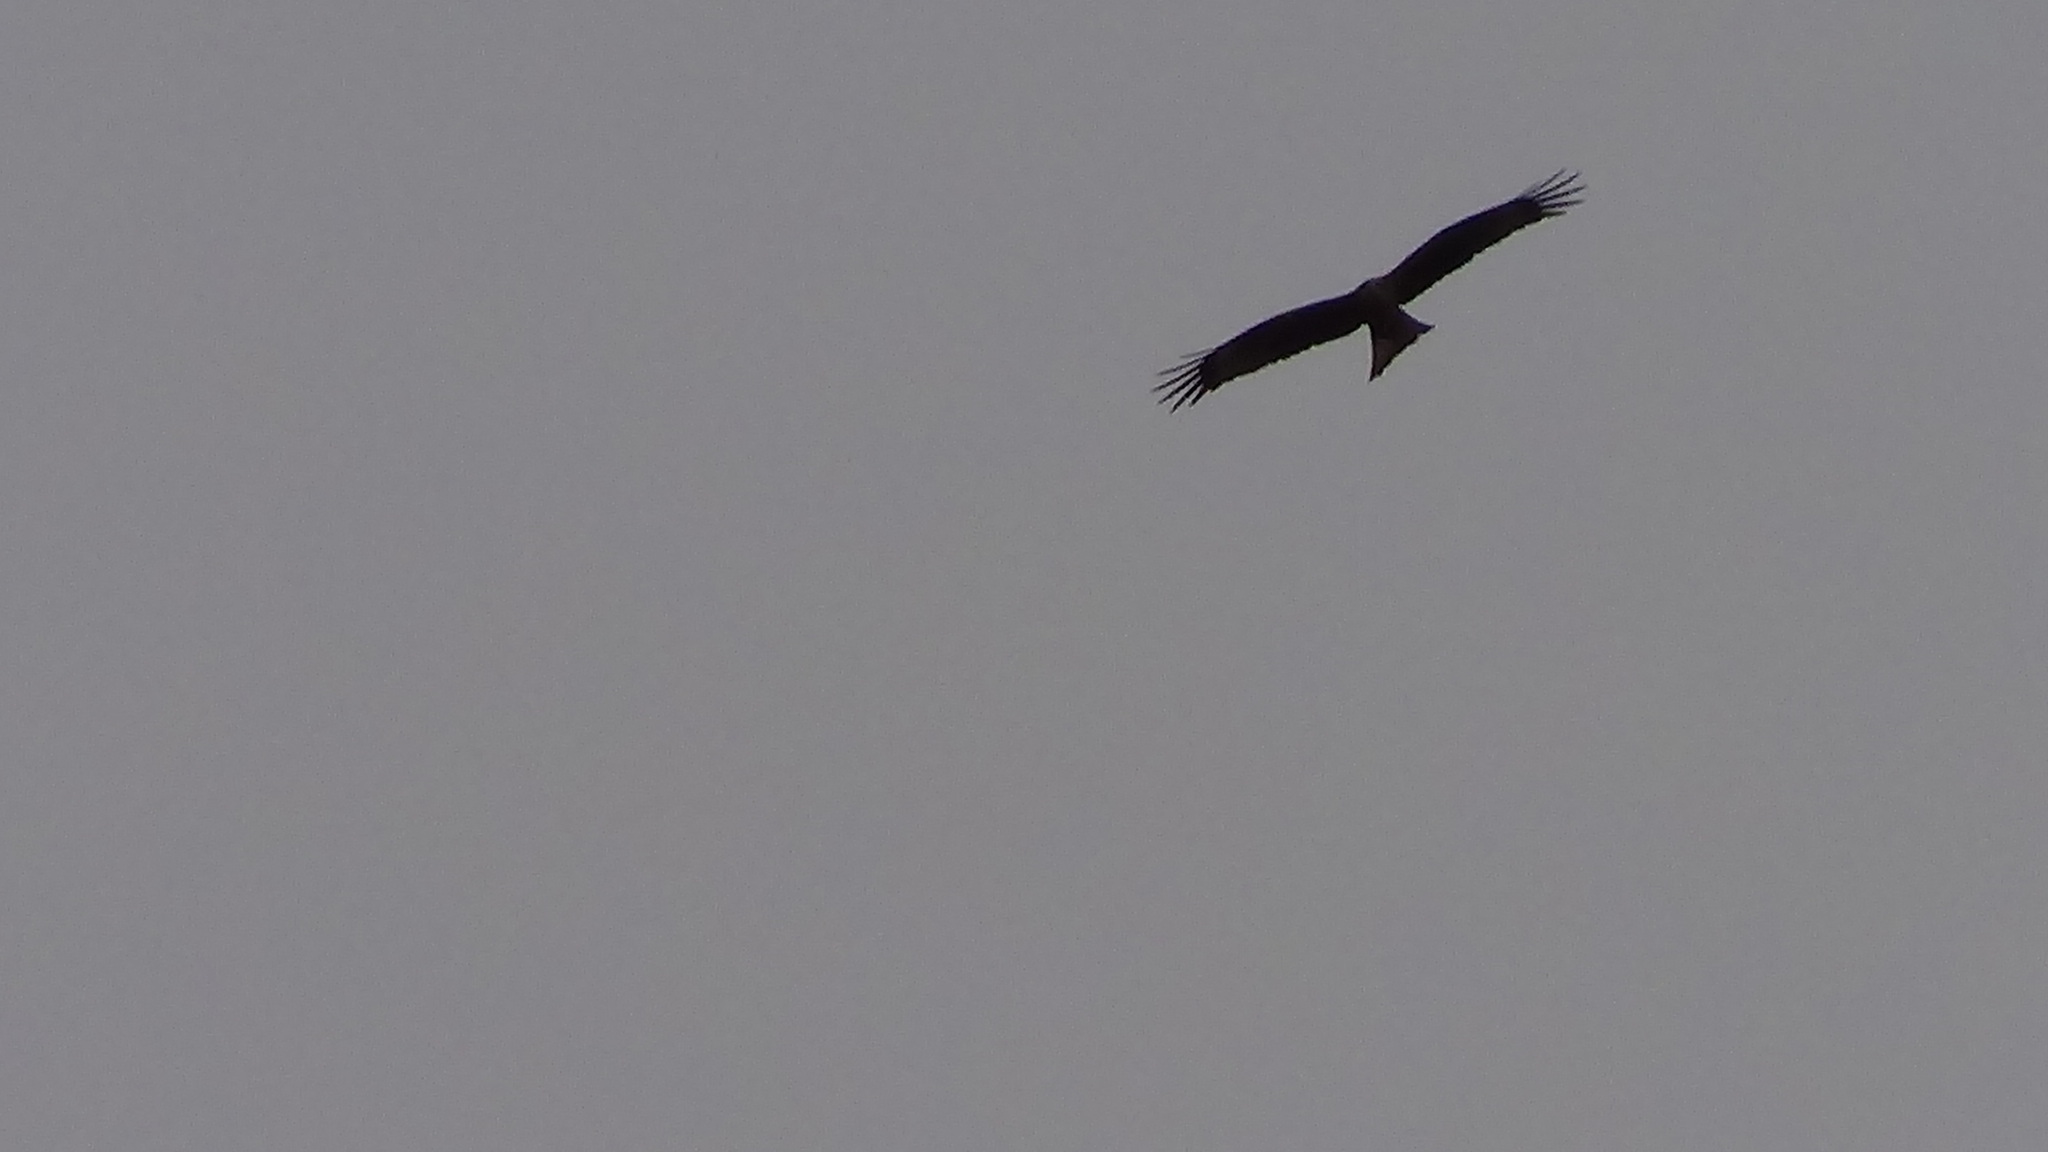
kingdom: Animalia
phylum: Chordata
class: Aves
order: Accipitriformes
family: Accipitridae
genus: Milvus
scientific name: Milvus migrans
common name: Black kite
